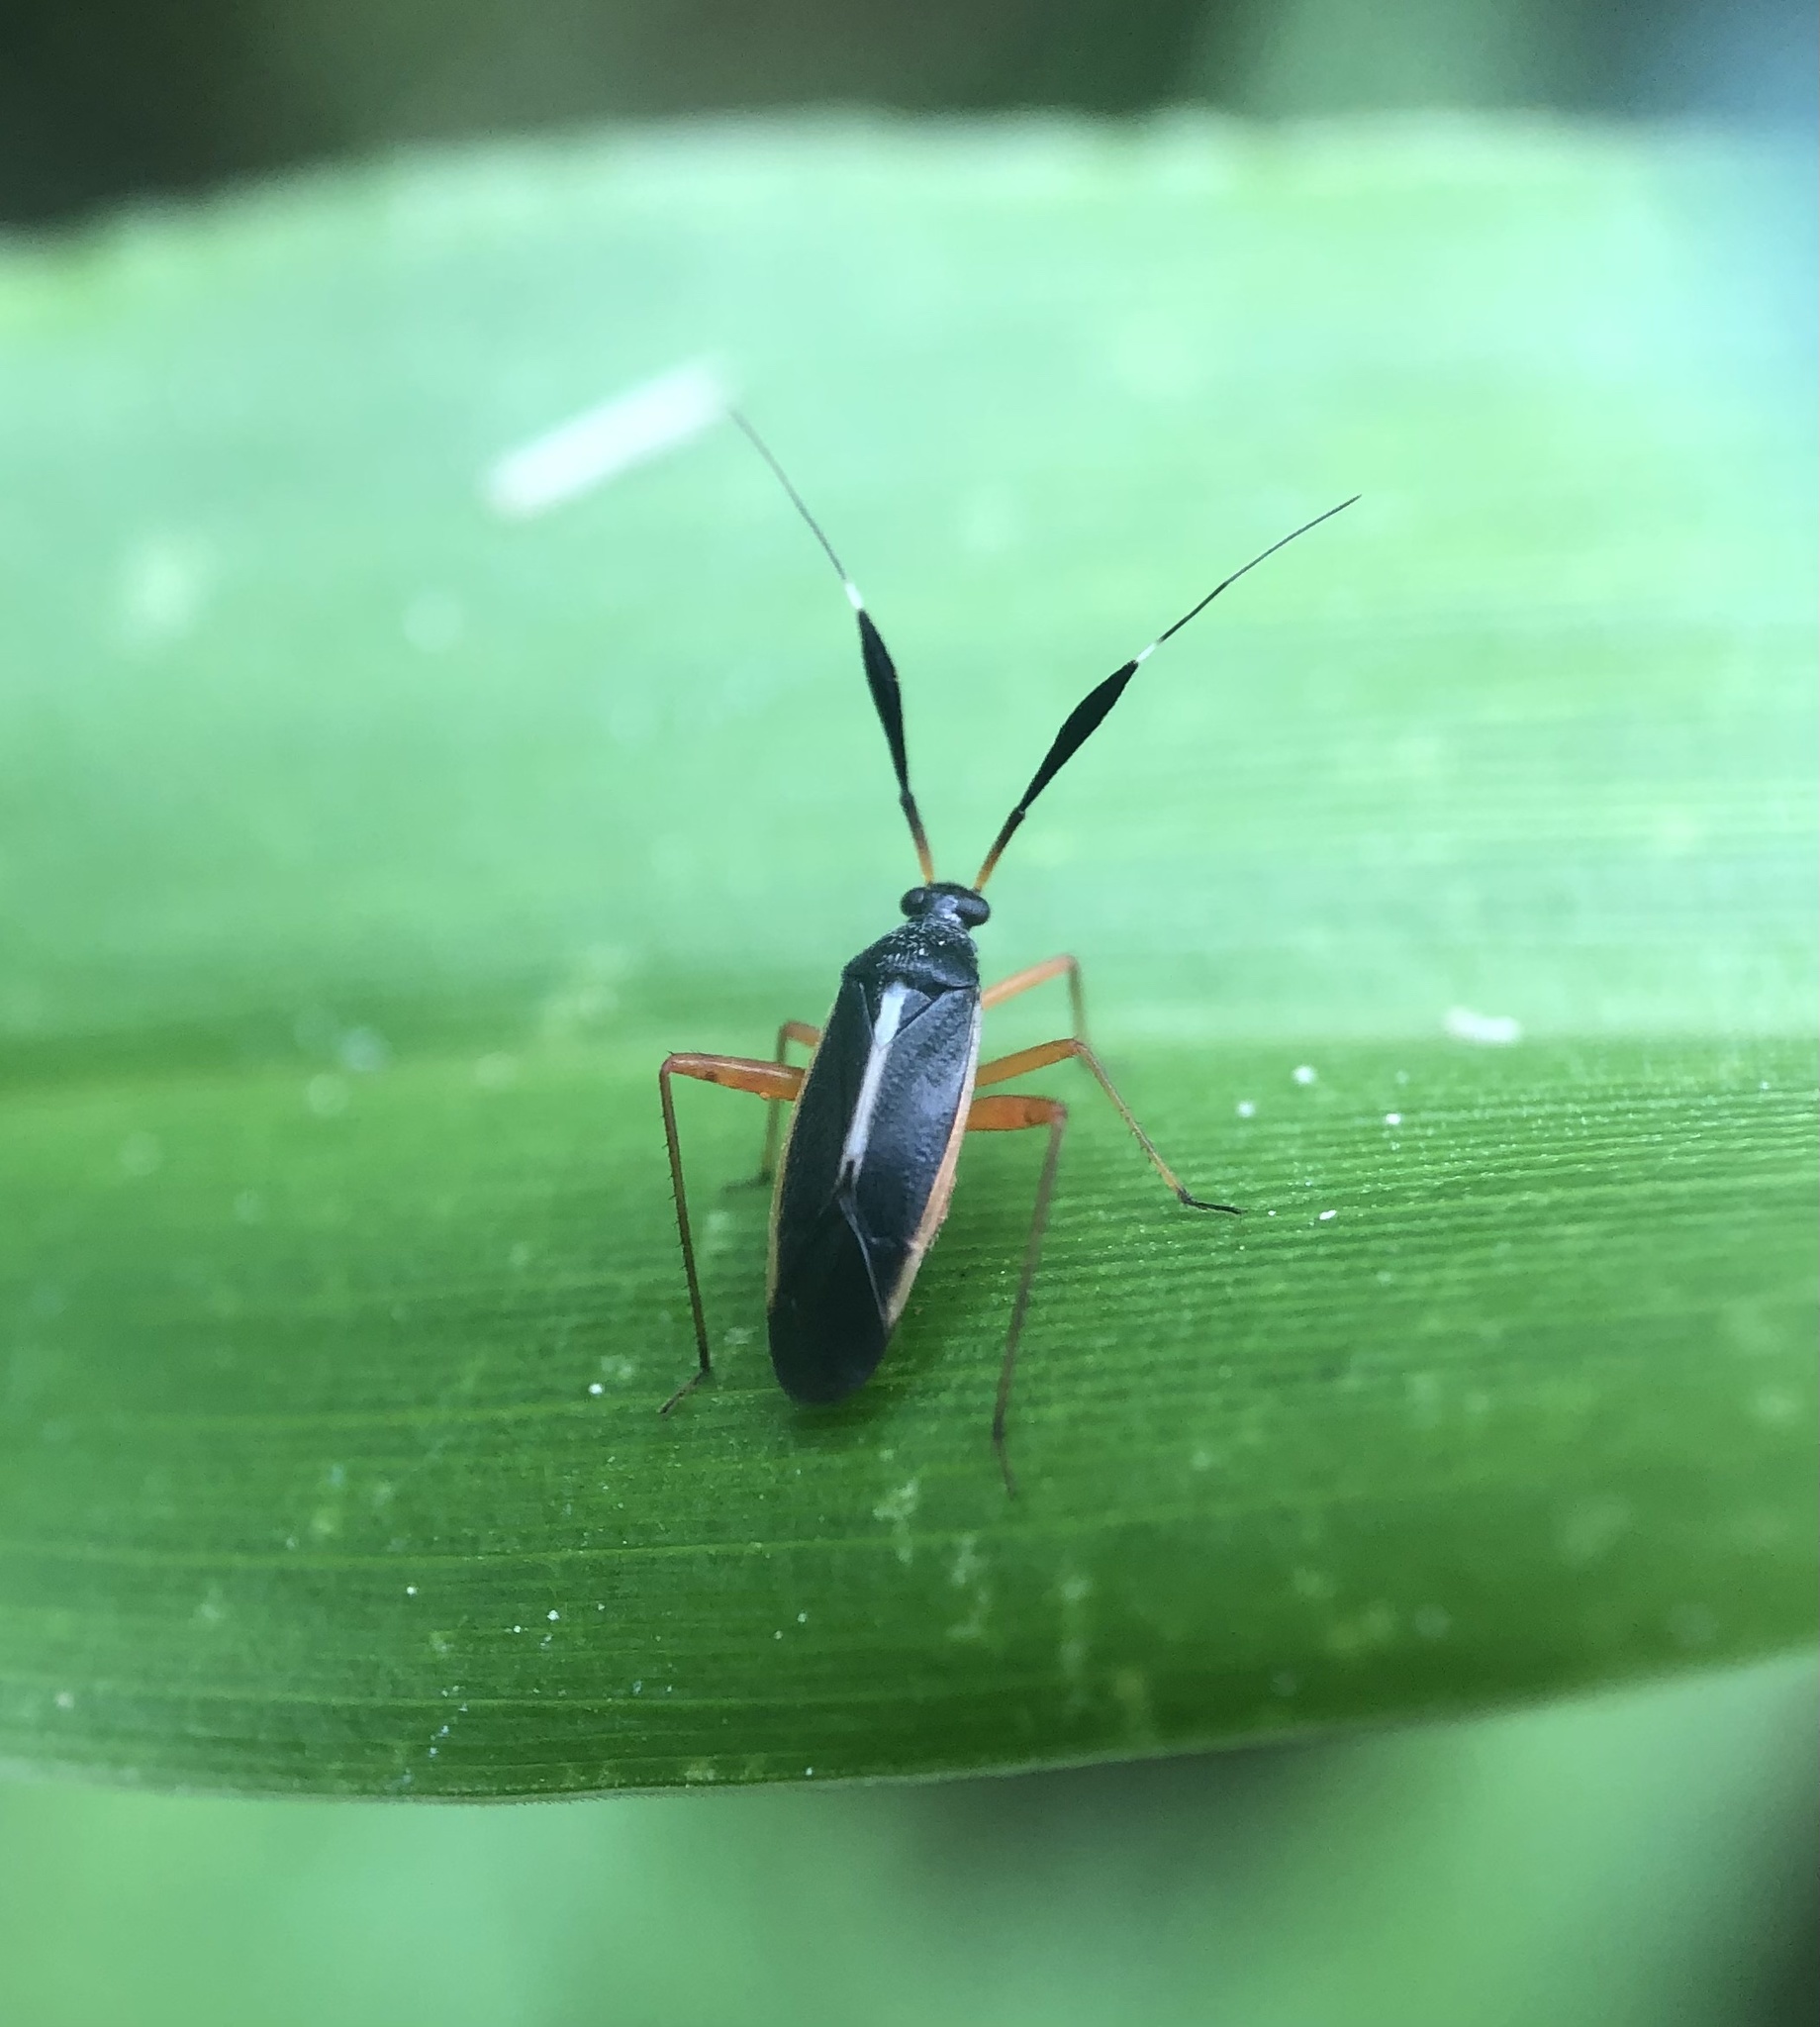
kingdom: Animalia
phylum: Arthropoda
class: Insecta
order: Hemiptera
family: Miridae
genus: Garganus
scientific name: Garganus fusiformis
